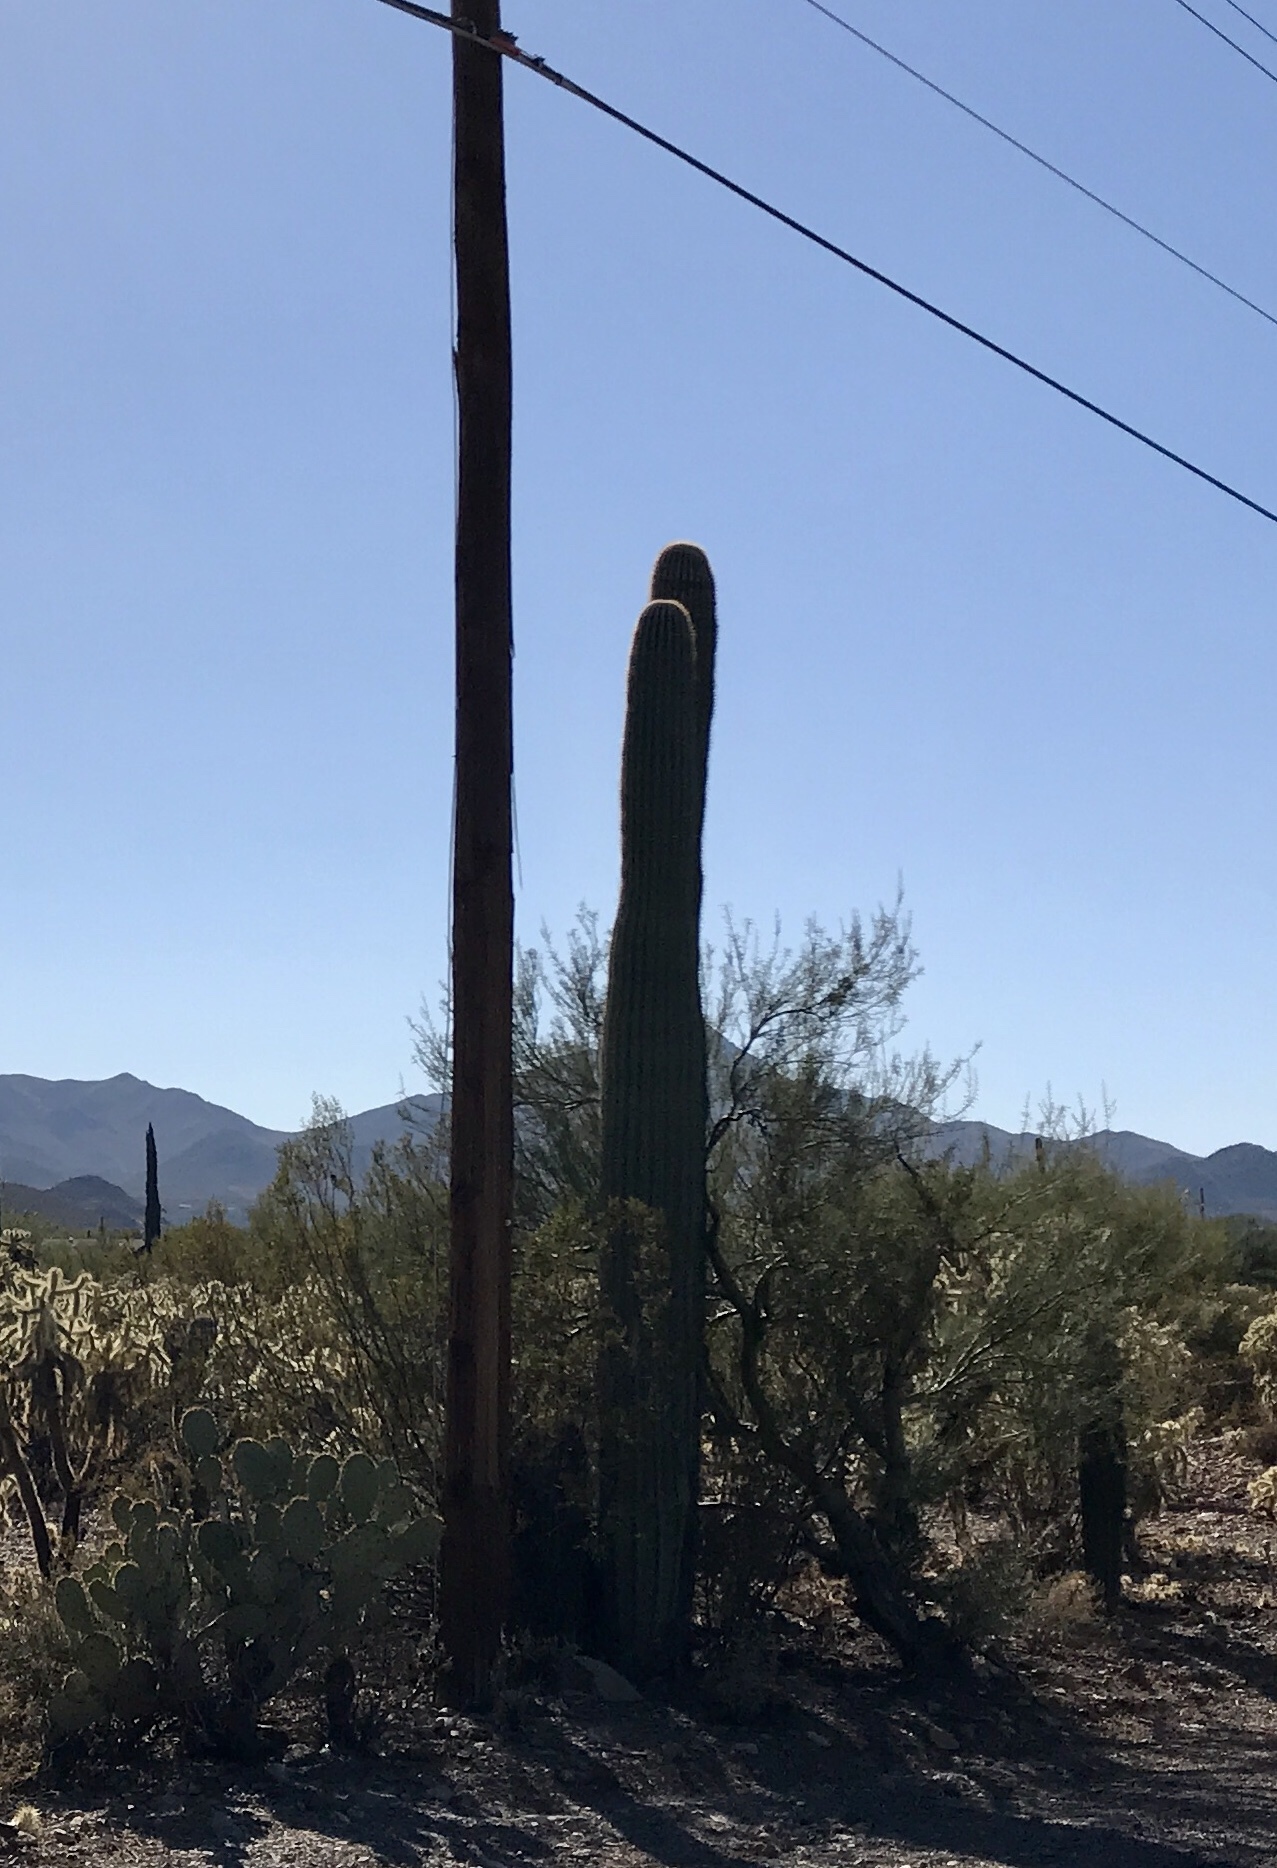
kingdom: Plantae
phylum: Tracheophyta
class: Magnoliopsida
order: Caryophyllales
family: Cactaceae
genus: Carnegiea
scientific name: Carnegiea gigantea
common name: Saguaro
